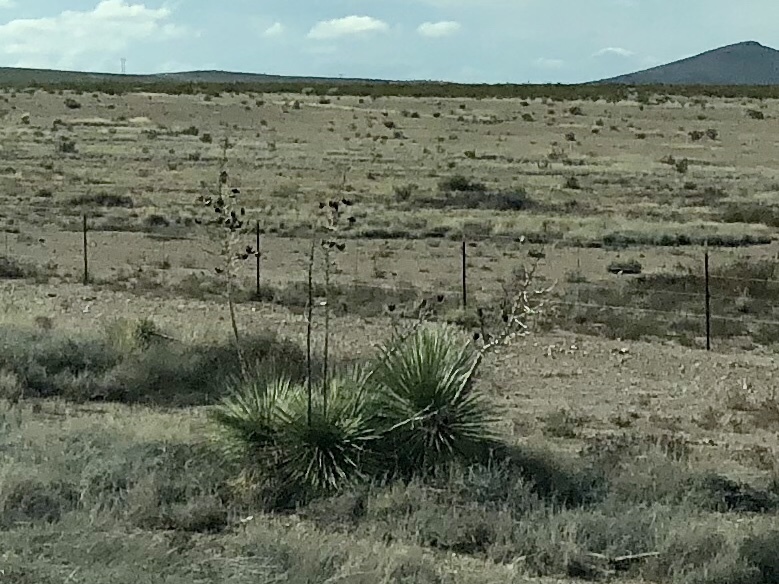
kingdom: Plantae
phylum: Tracheophyta
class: Liliopsida
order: Asparagales
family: Asparagaceae
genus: Yucca
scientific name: Yucca elata
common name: Palmella
